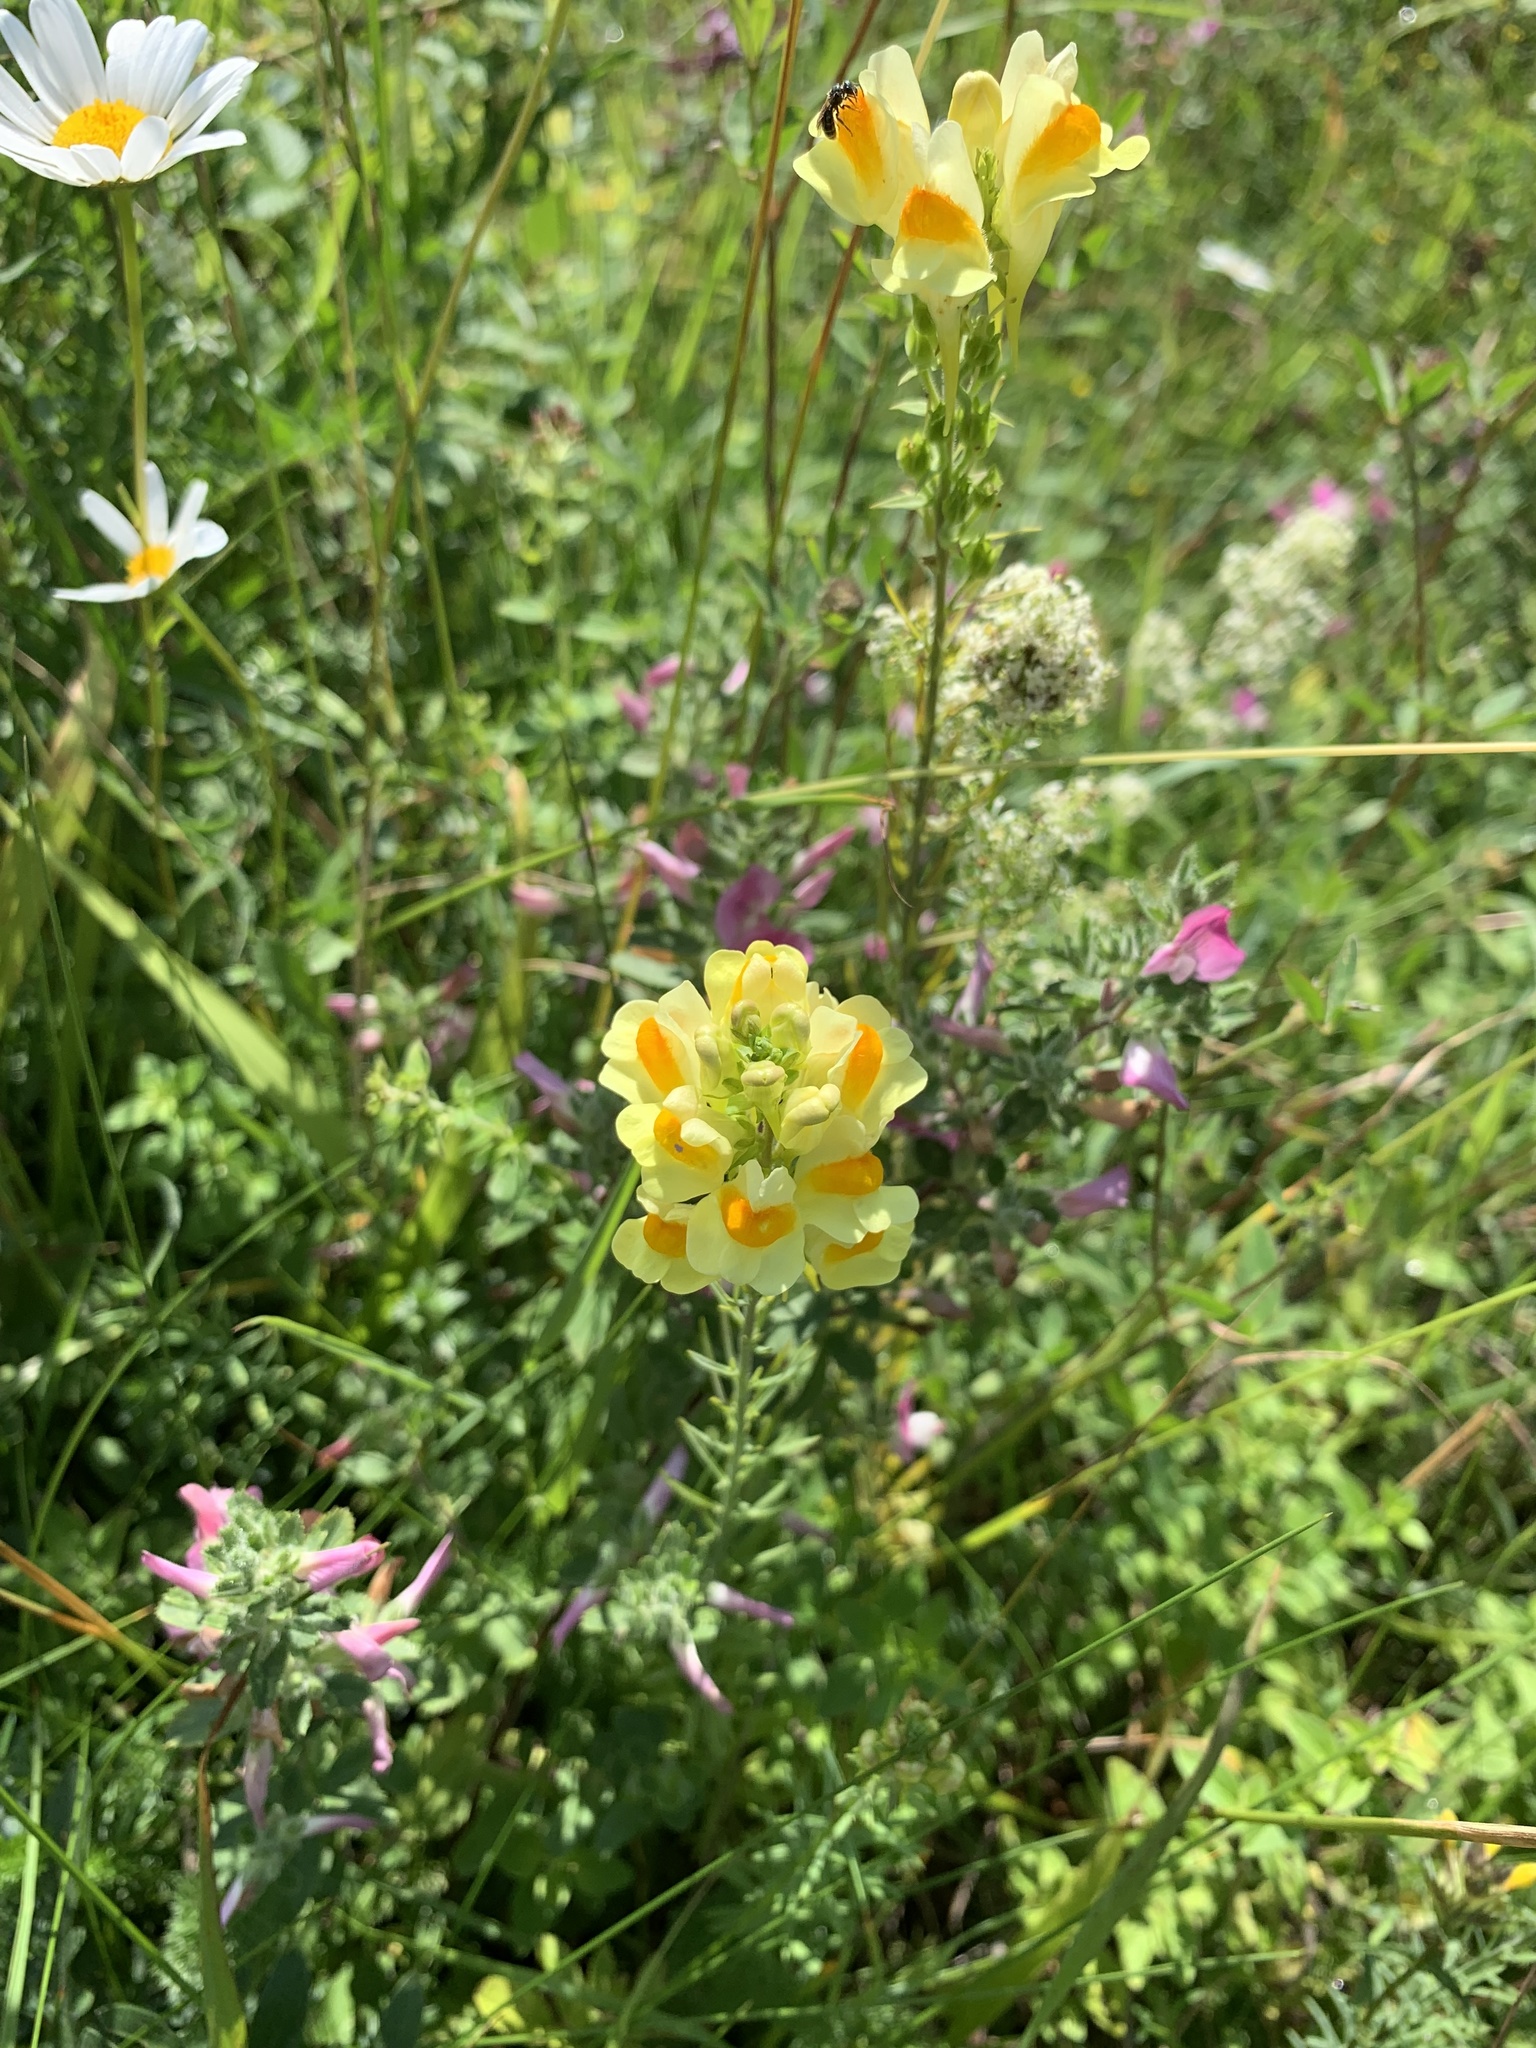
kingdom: Plantae
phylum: Tracheophyta
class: Magnoliopsida
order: Lamiales
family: Plantaginaceae
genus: Linaria
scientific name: Linaria vulgaris
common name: Butter and eggs
